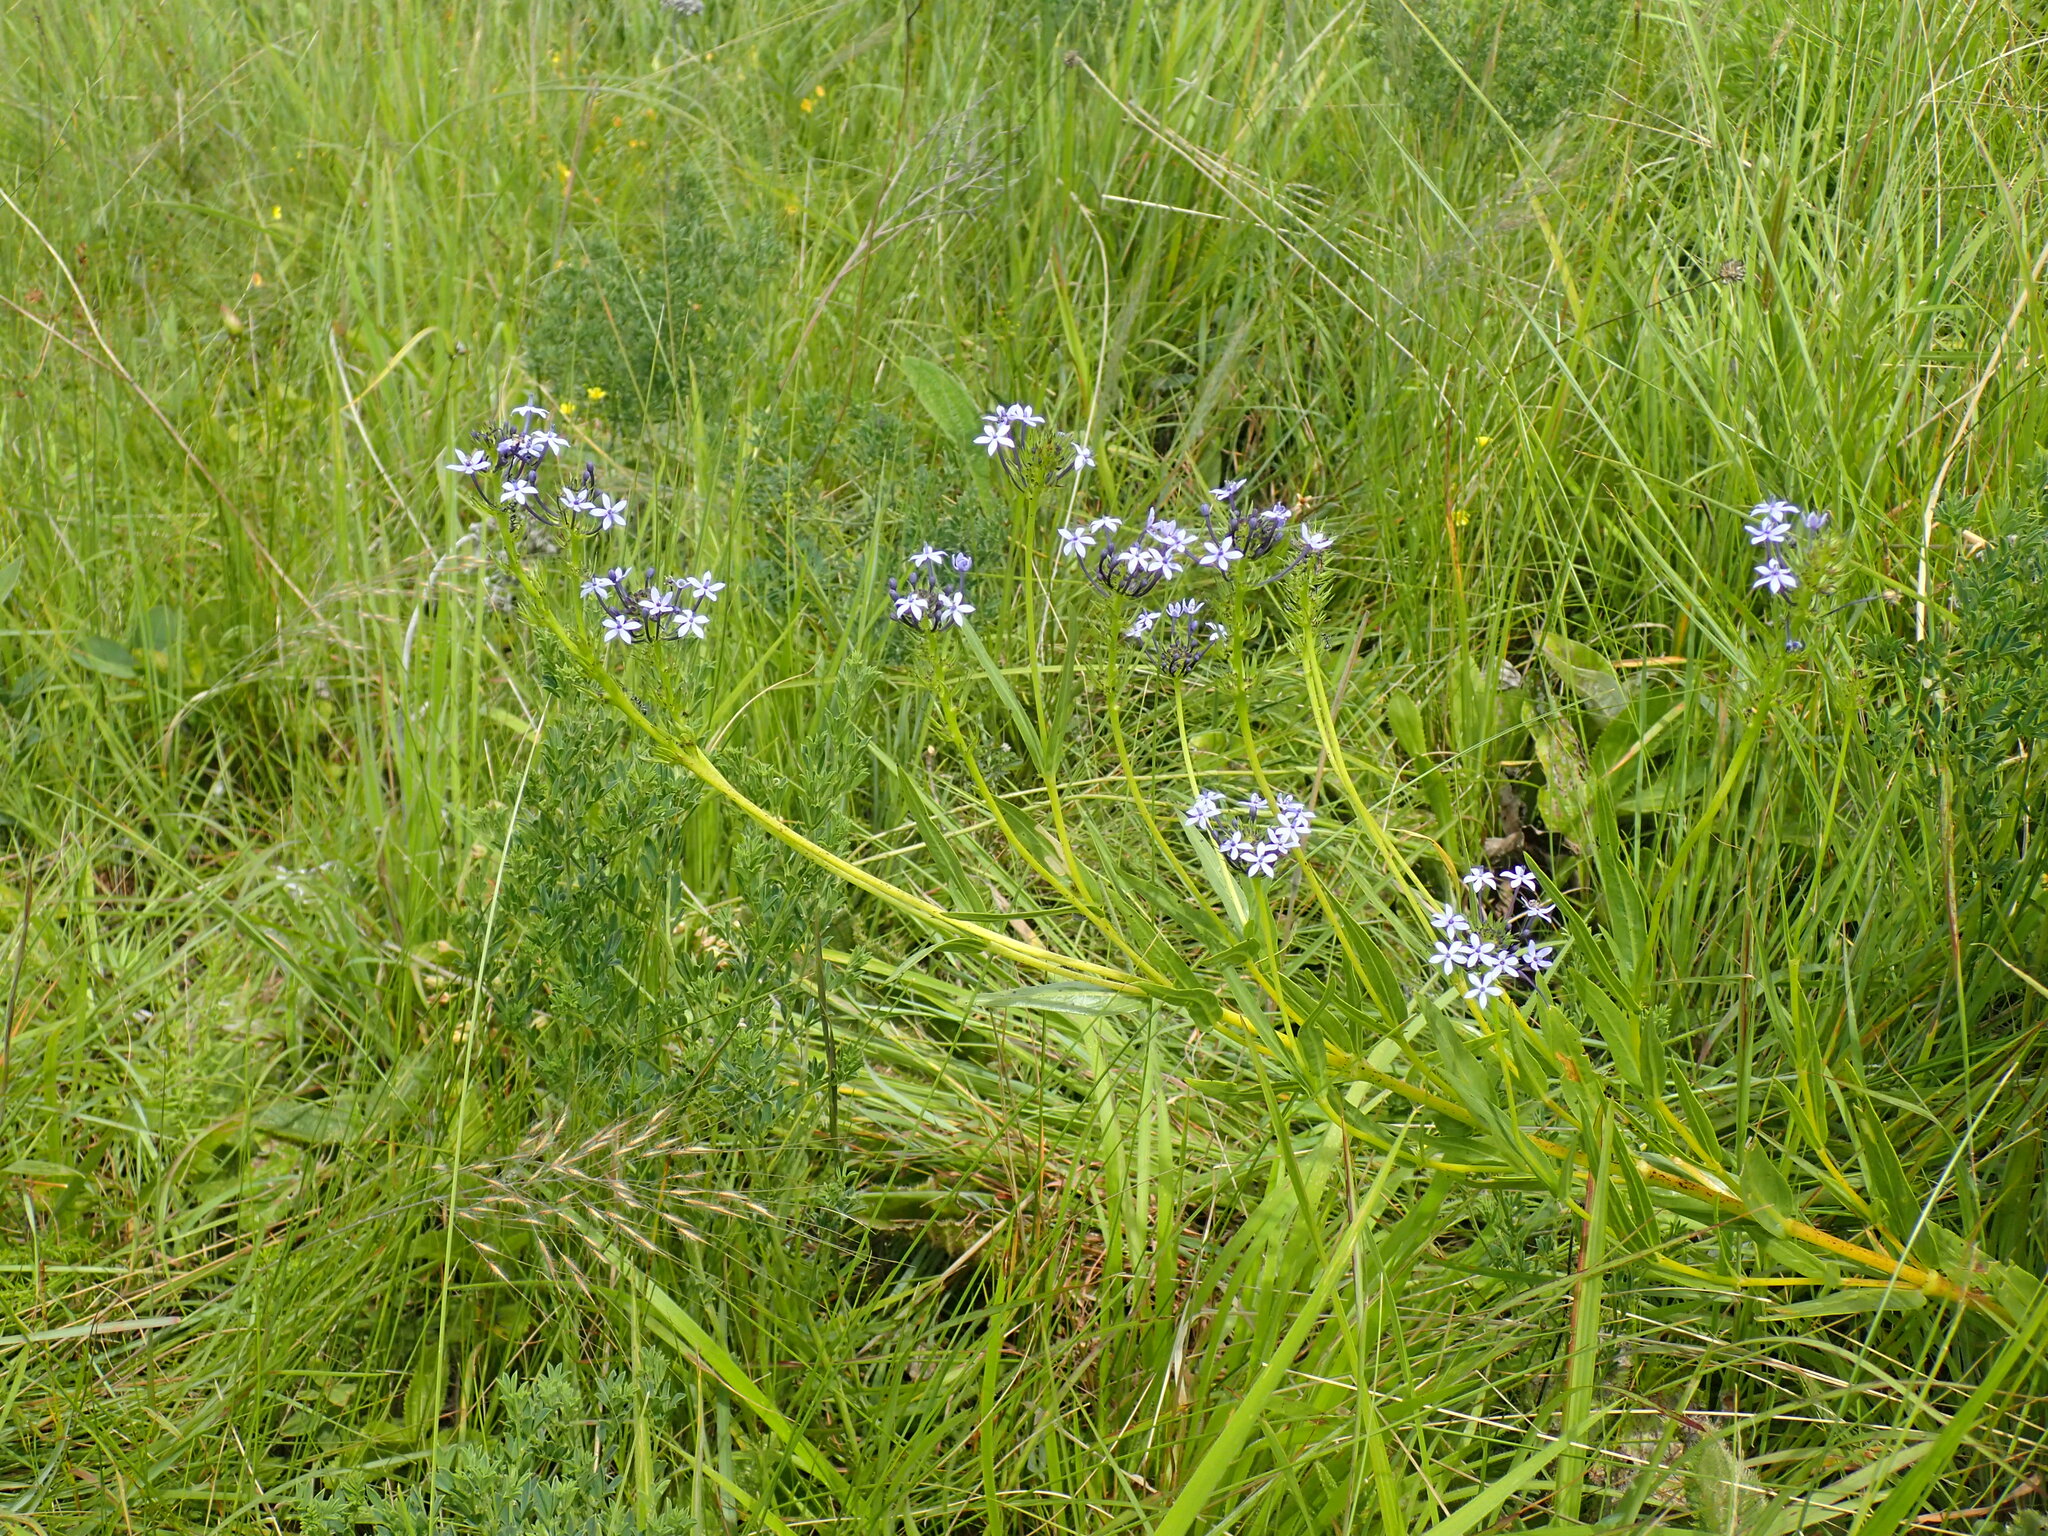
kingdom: Plantae
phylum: Tracheophyta
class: Magnoliopsida
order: Gentianales
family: Rubiaceae
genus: Pentanisia
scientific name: Pentanisia angustifolia
